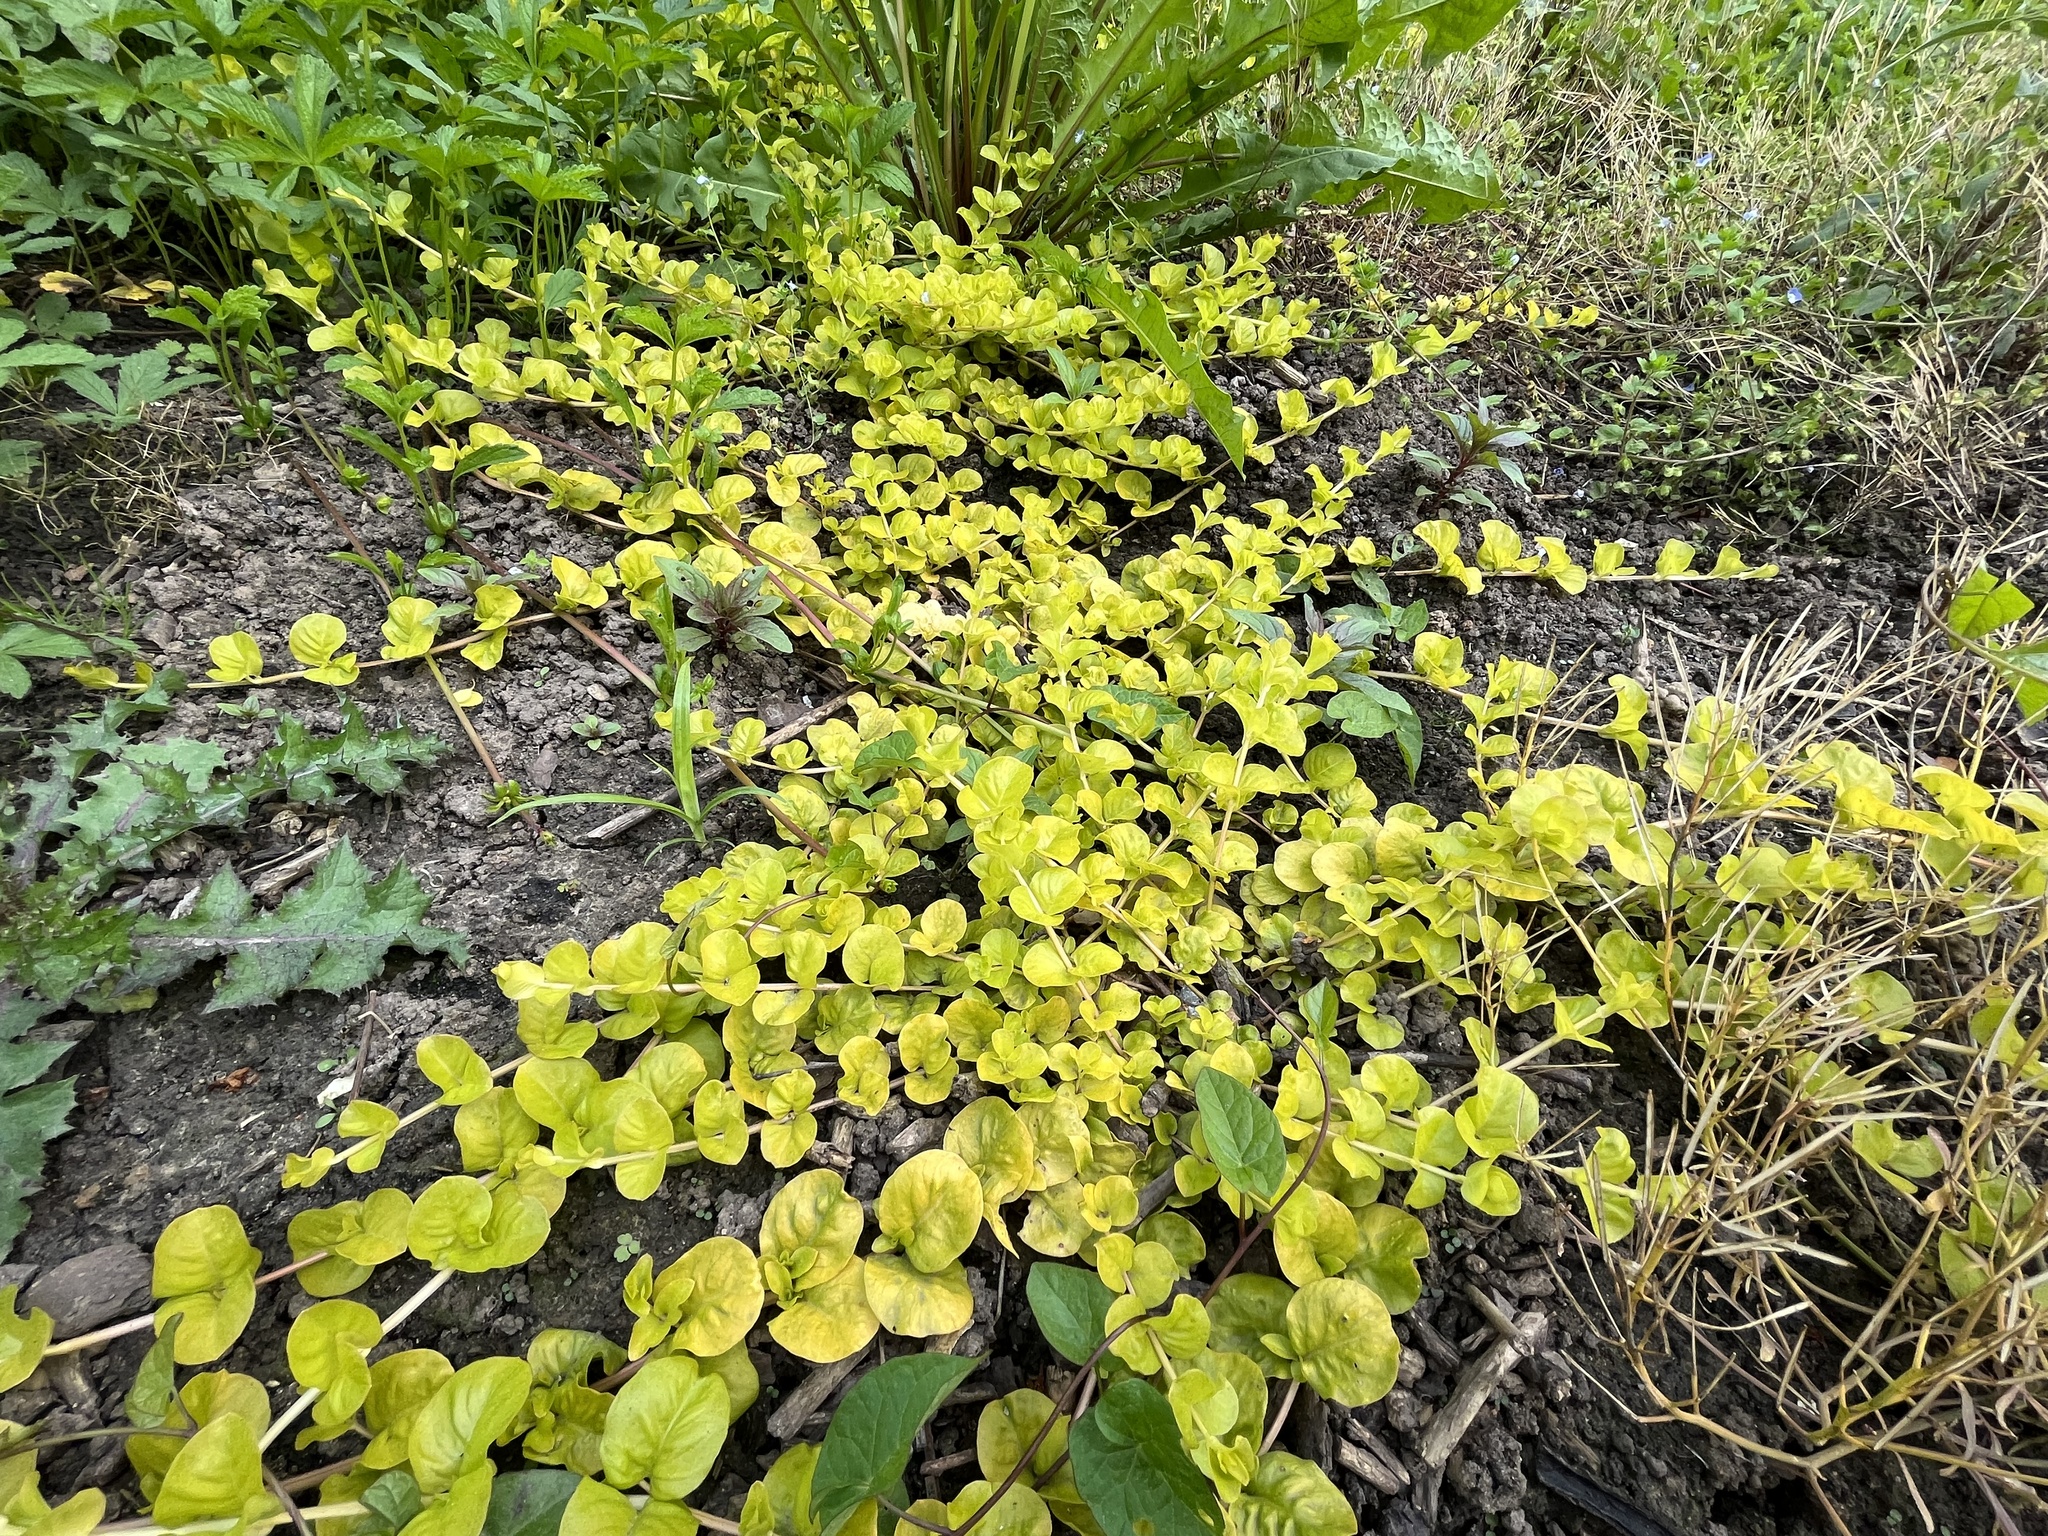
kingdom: Plantae
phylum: Tracheophyta
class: Magnoliopsida
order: Ericales
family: Primulaceae
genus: Lysimachia
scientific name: Lysimachia nummularia
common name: Moneywort
